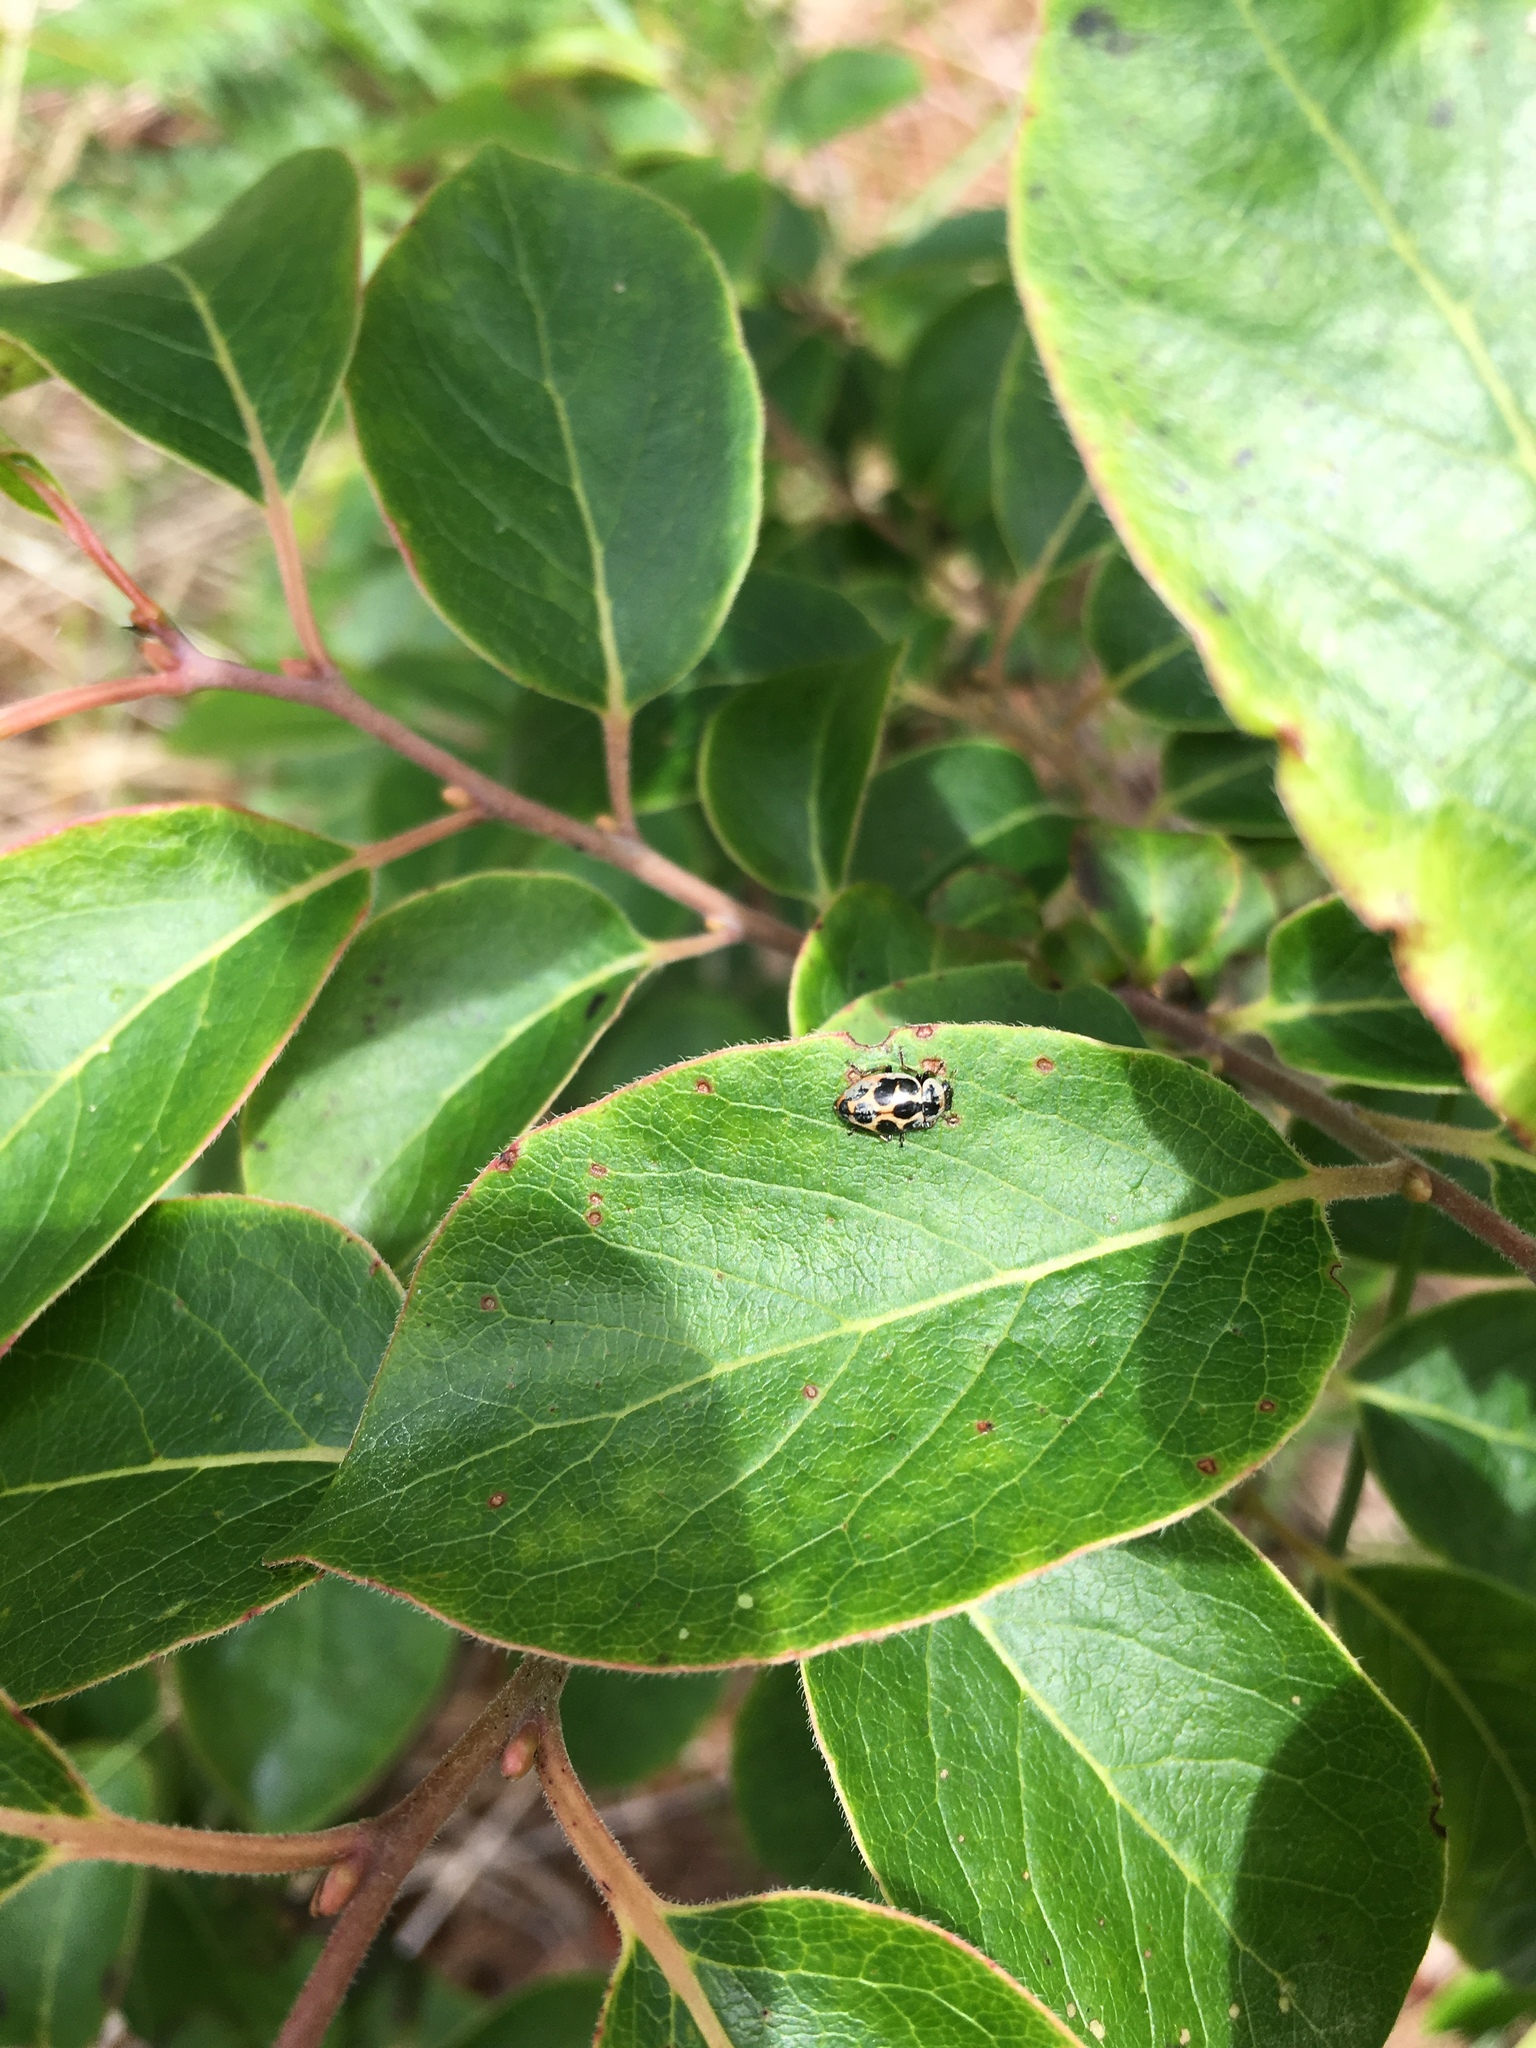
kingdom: Animalia
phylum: Arthropoda
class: Insecta
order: Coleoptera
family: Coccinellidae
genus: Naemia
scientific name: Naemia seriata
